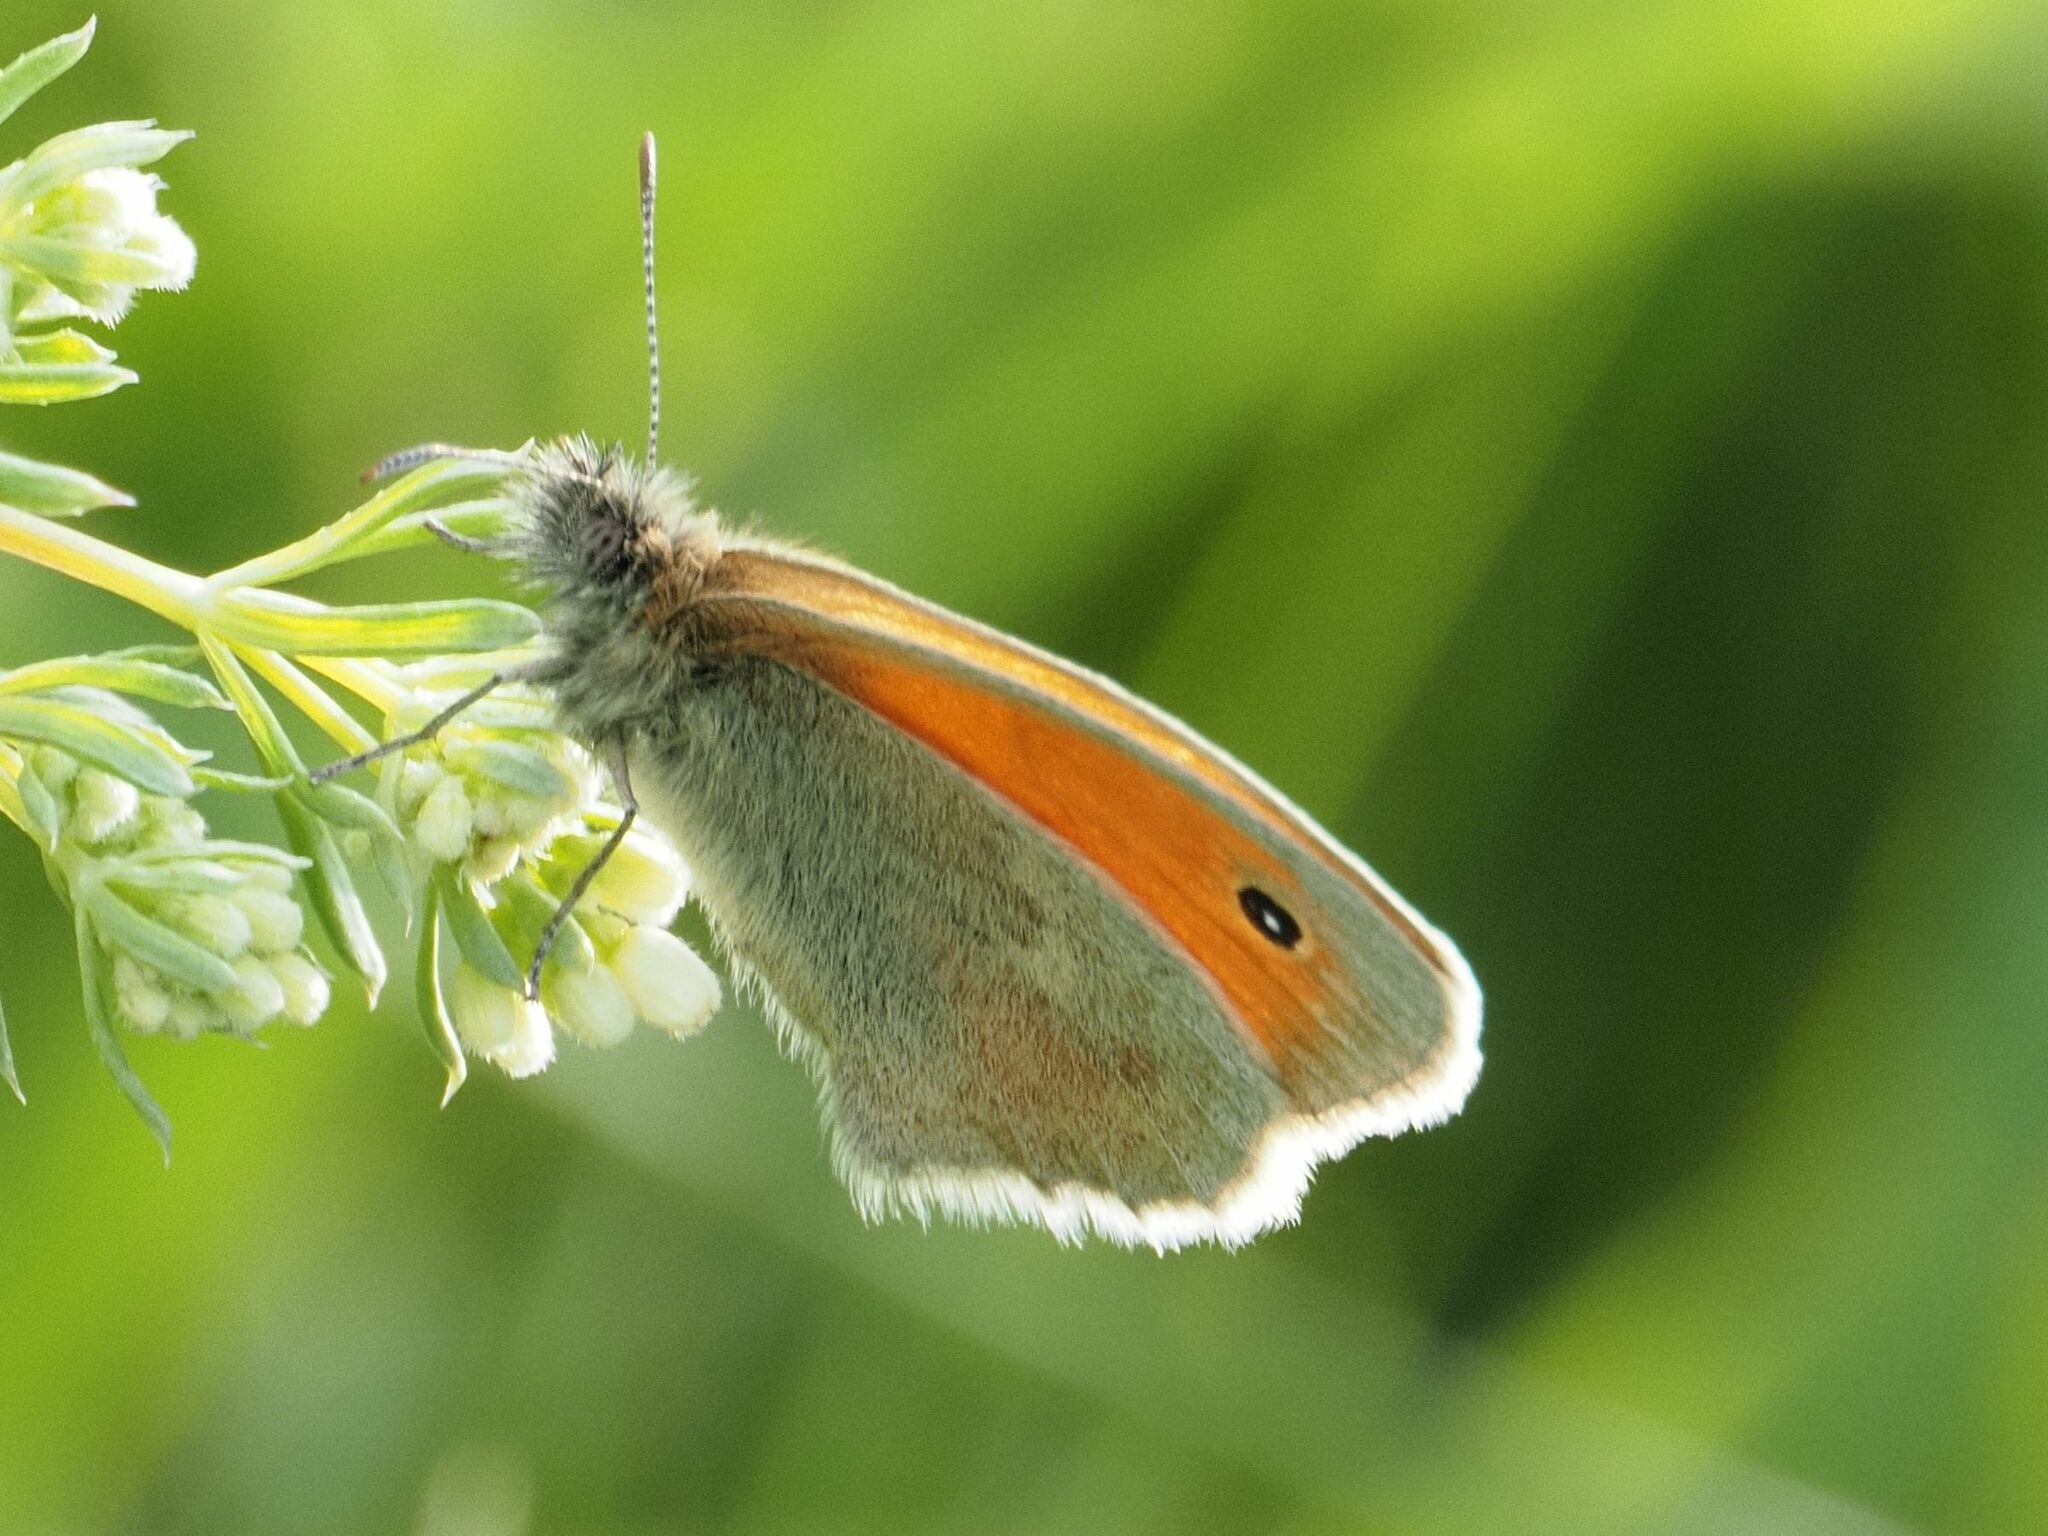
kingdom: Animalia
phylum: Arthropoda
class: Insecta
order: Lepidoptera
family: Nymphalidae
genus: Coenonympha
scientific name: Coenonympha pamphilus
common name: Small heath
